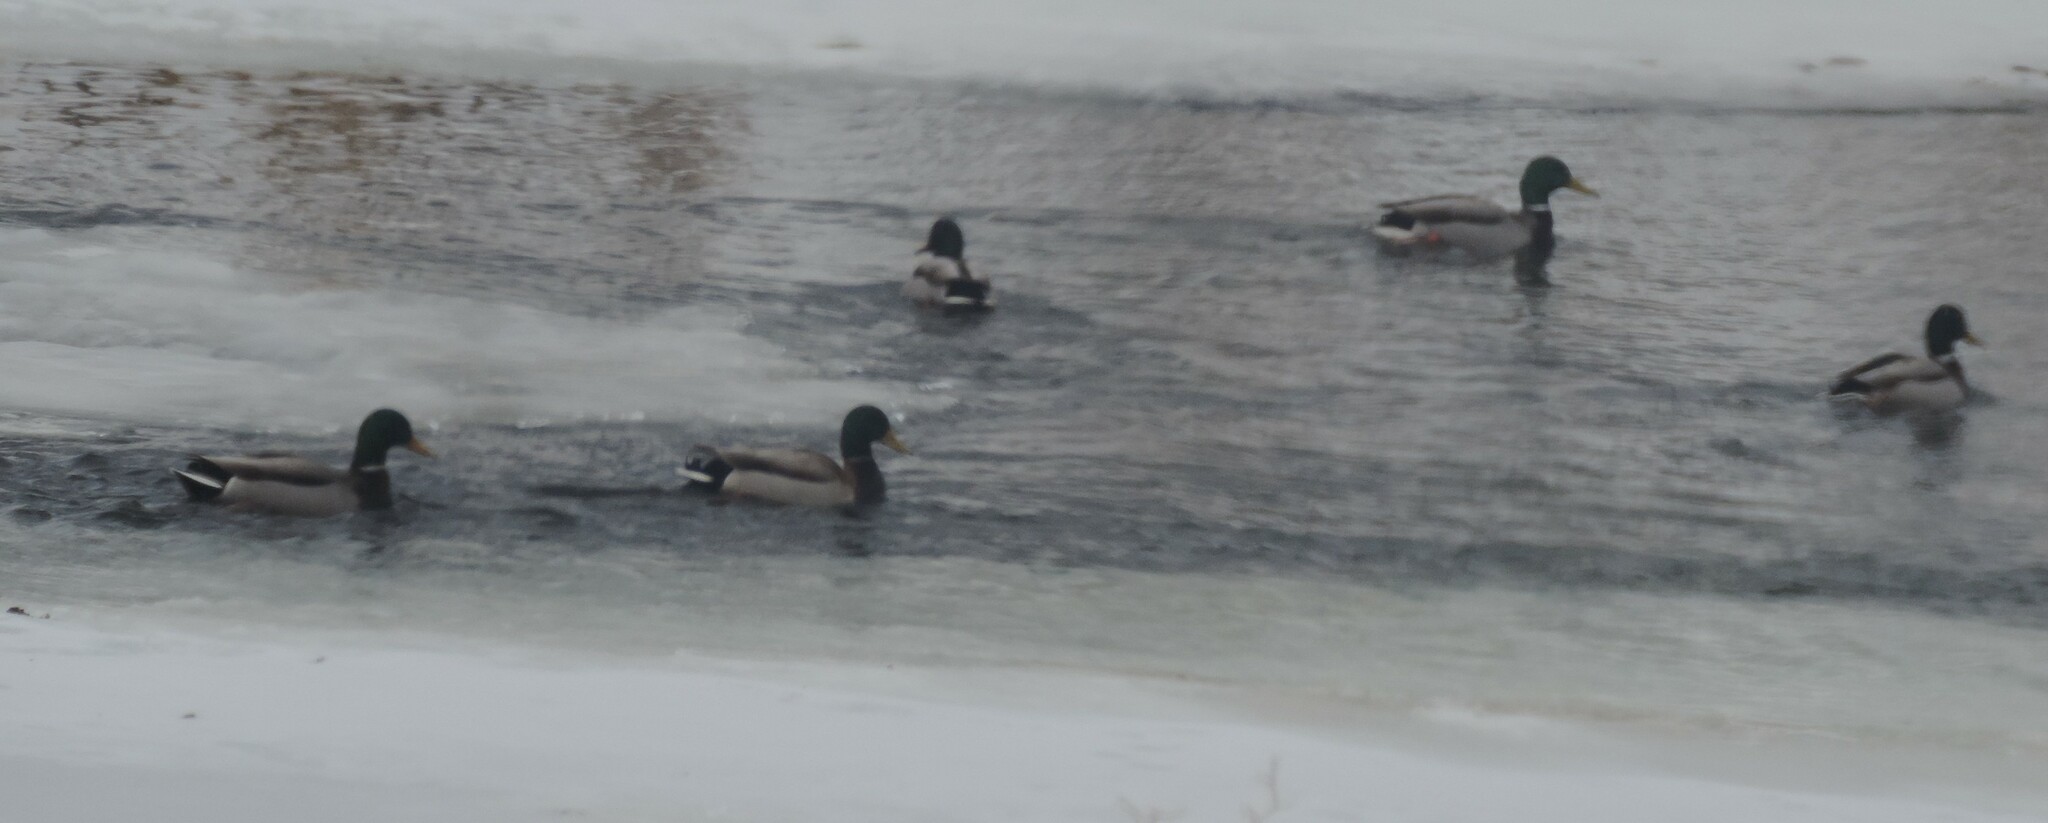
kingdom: Animalia
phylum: Chordata
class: Aves
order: Anseriformes
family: Anatidae
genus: Anas
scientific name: Anas platyrhynchos
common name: Mallard
